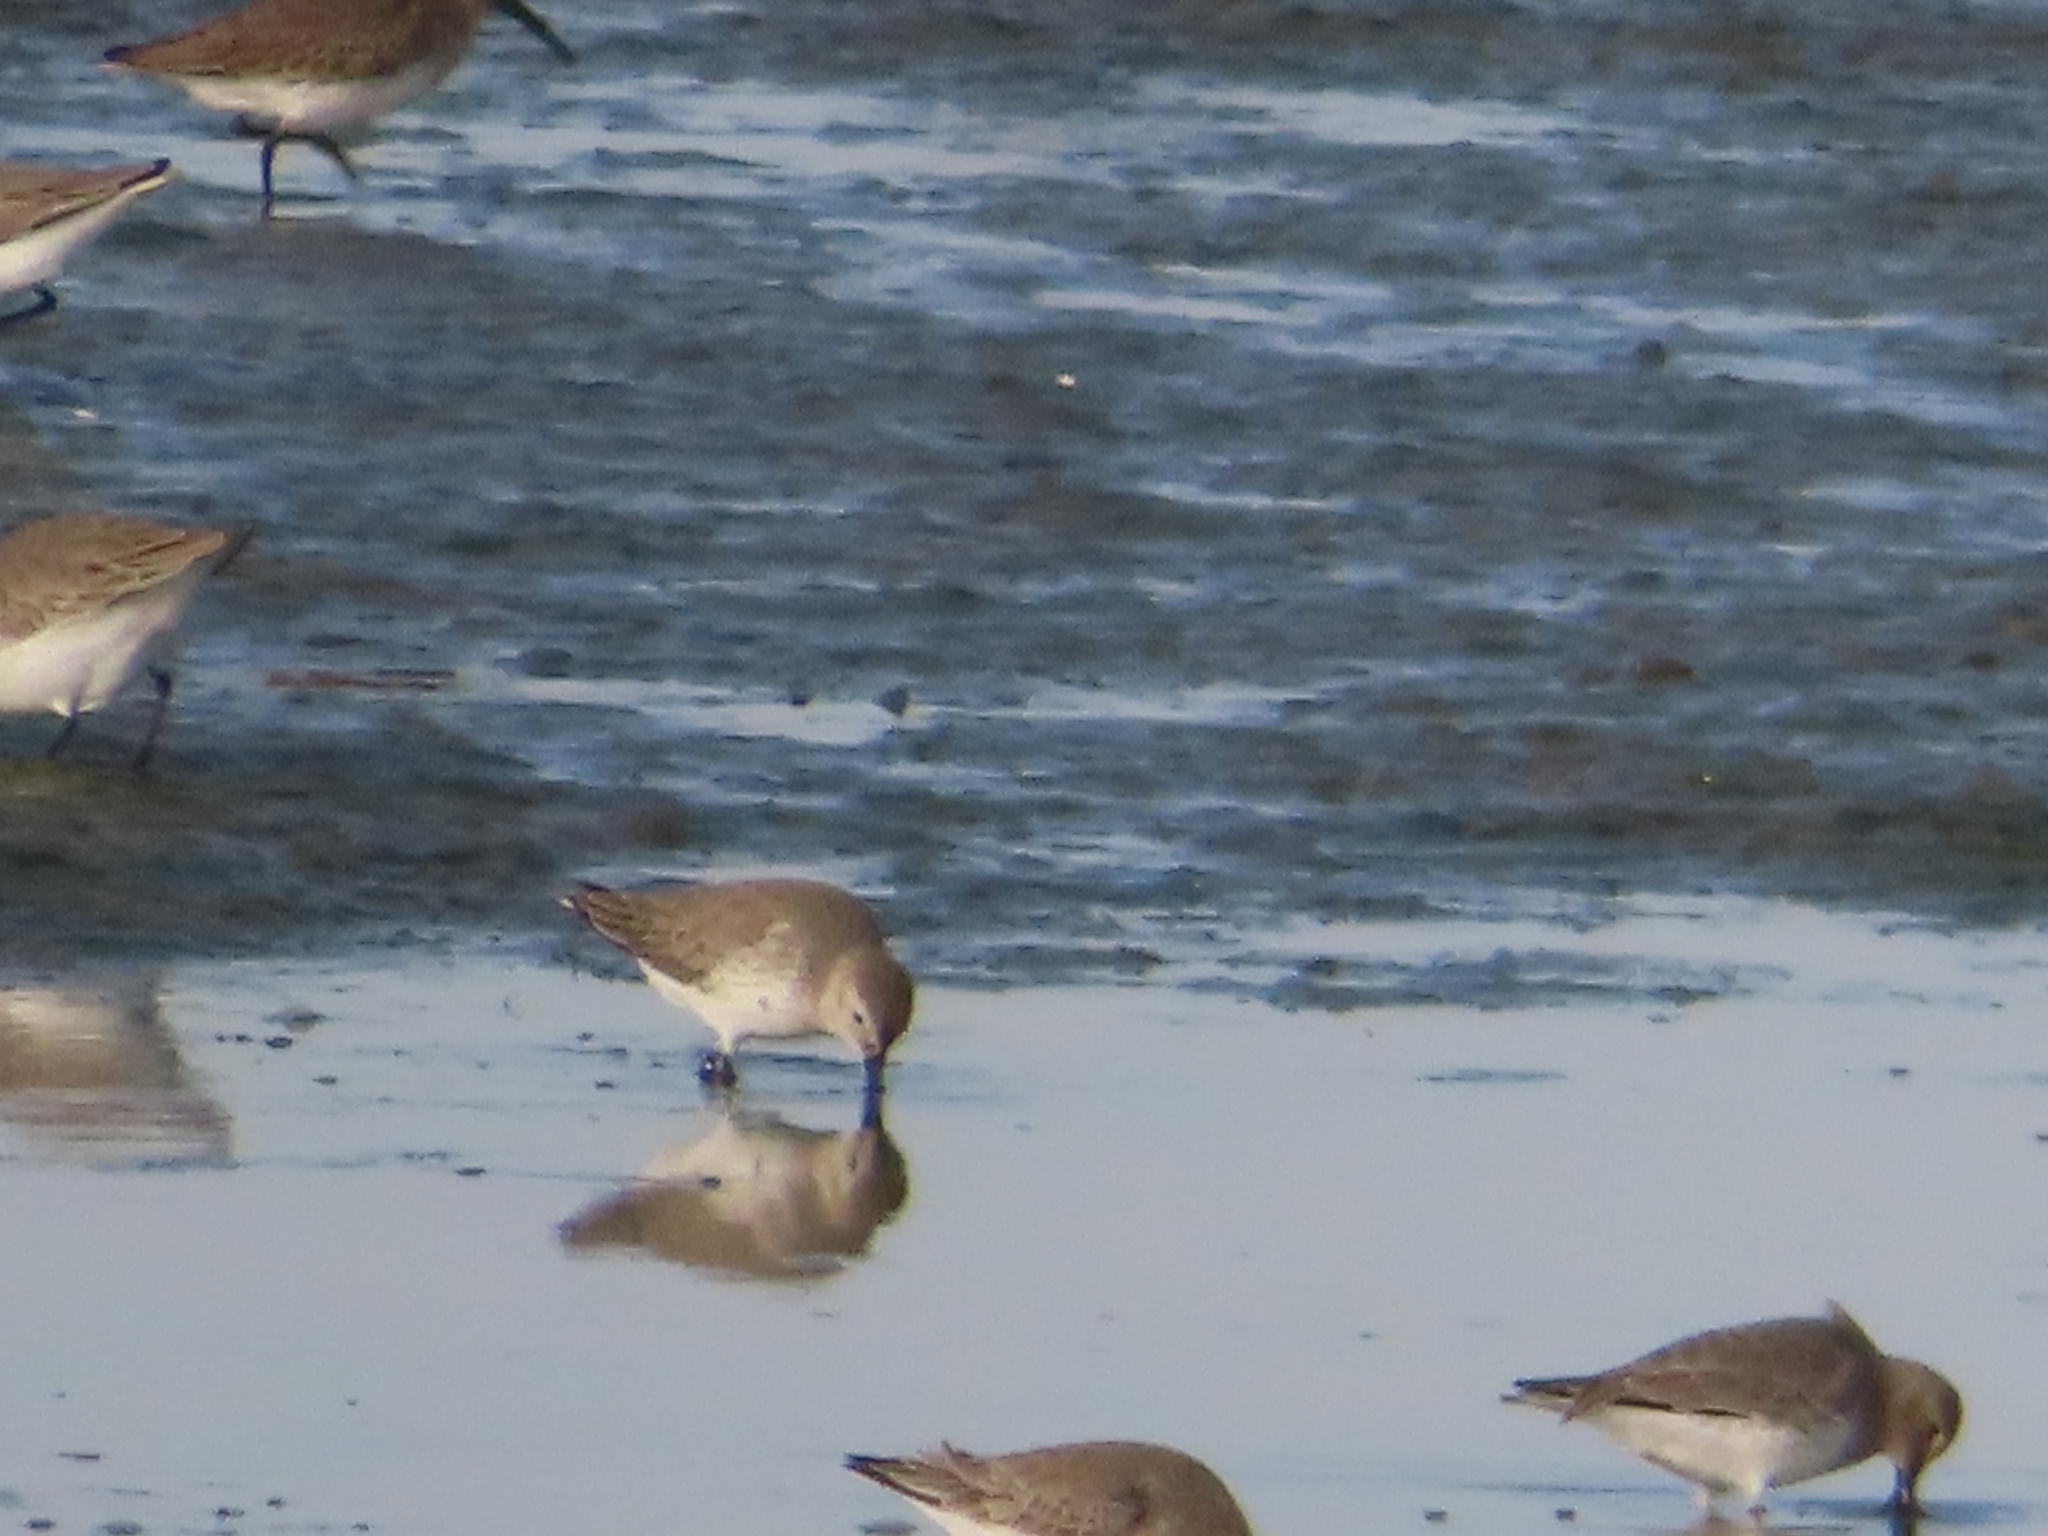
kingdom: Animalia
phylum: Chordata
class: Aves
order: Charadriiformes
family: Scolopacidae
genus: Calidris
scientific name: Calidris alpina
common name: Dunlin
